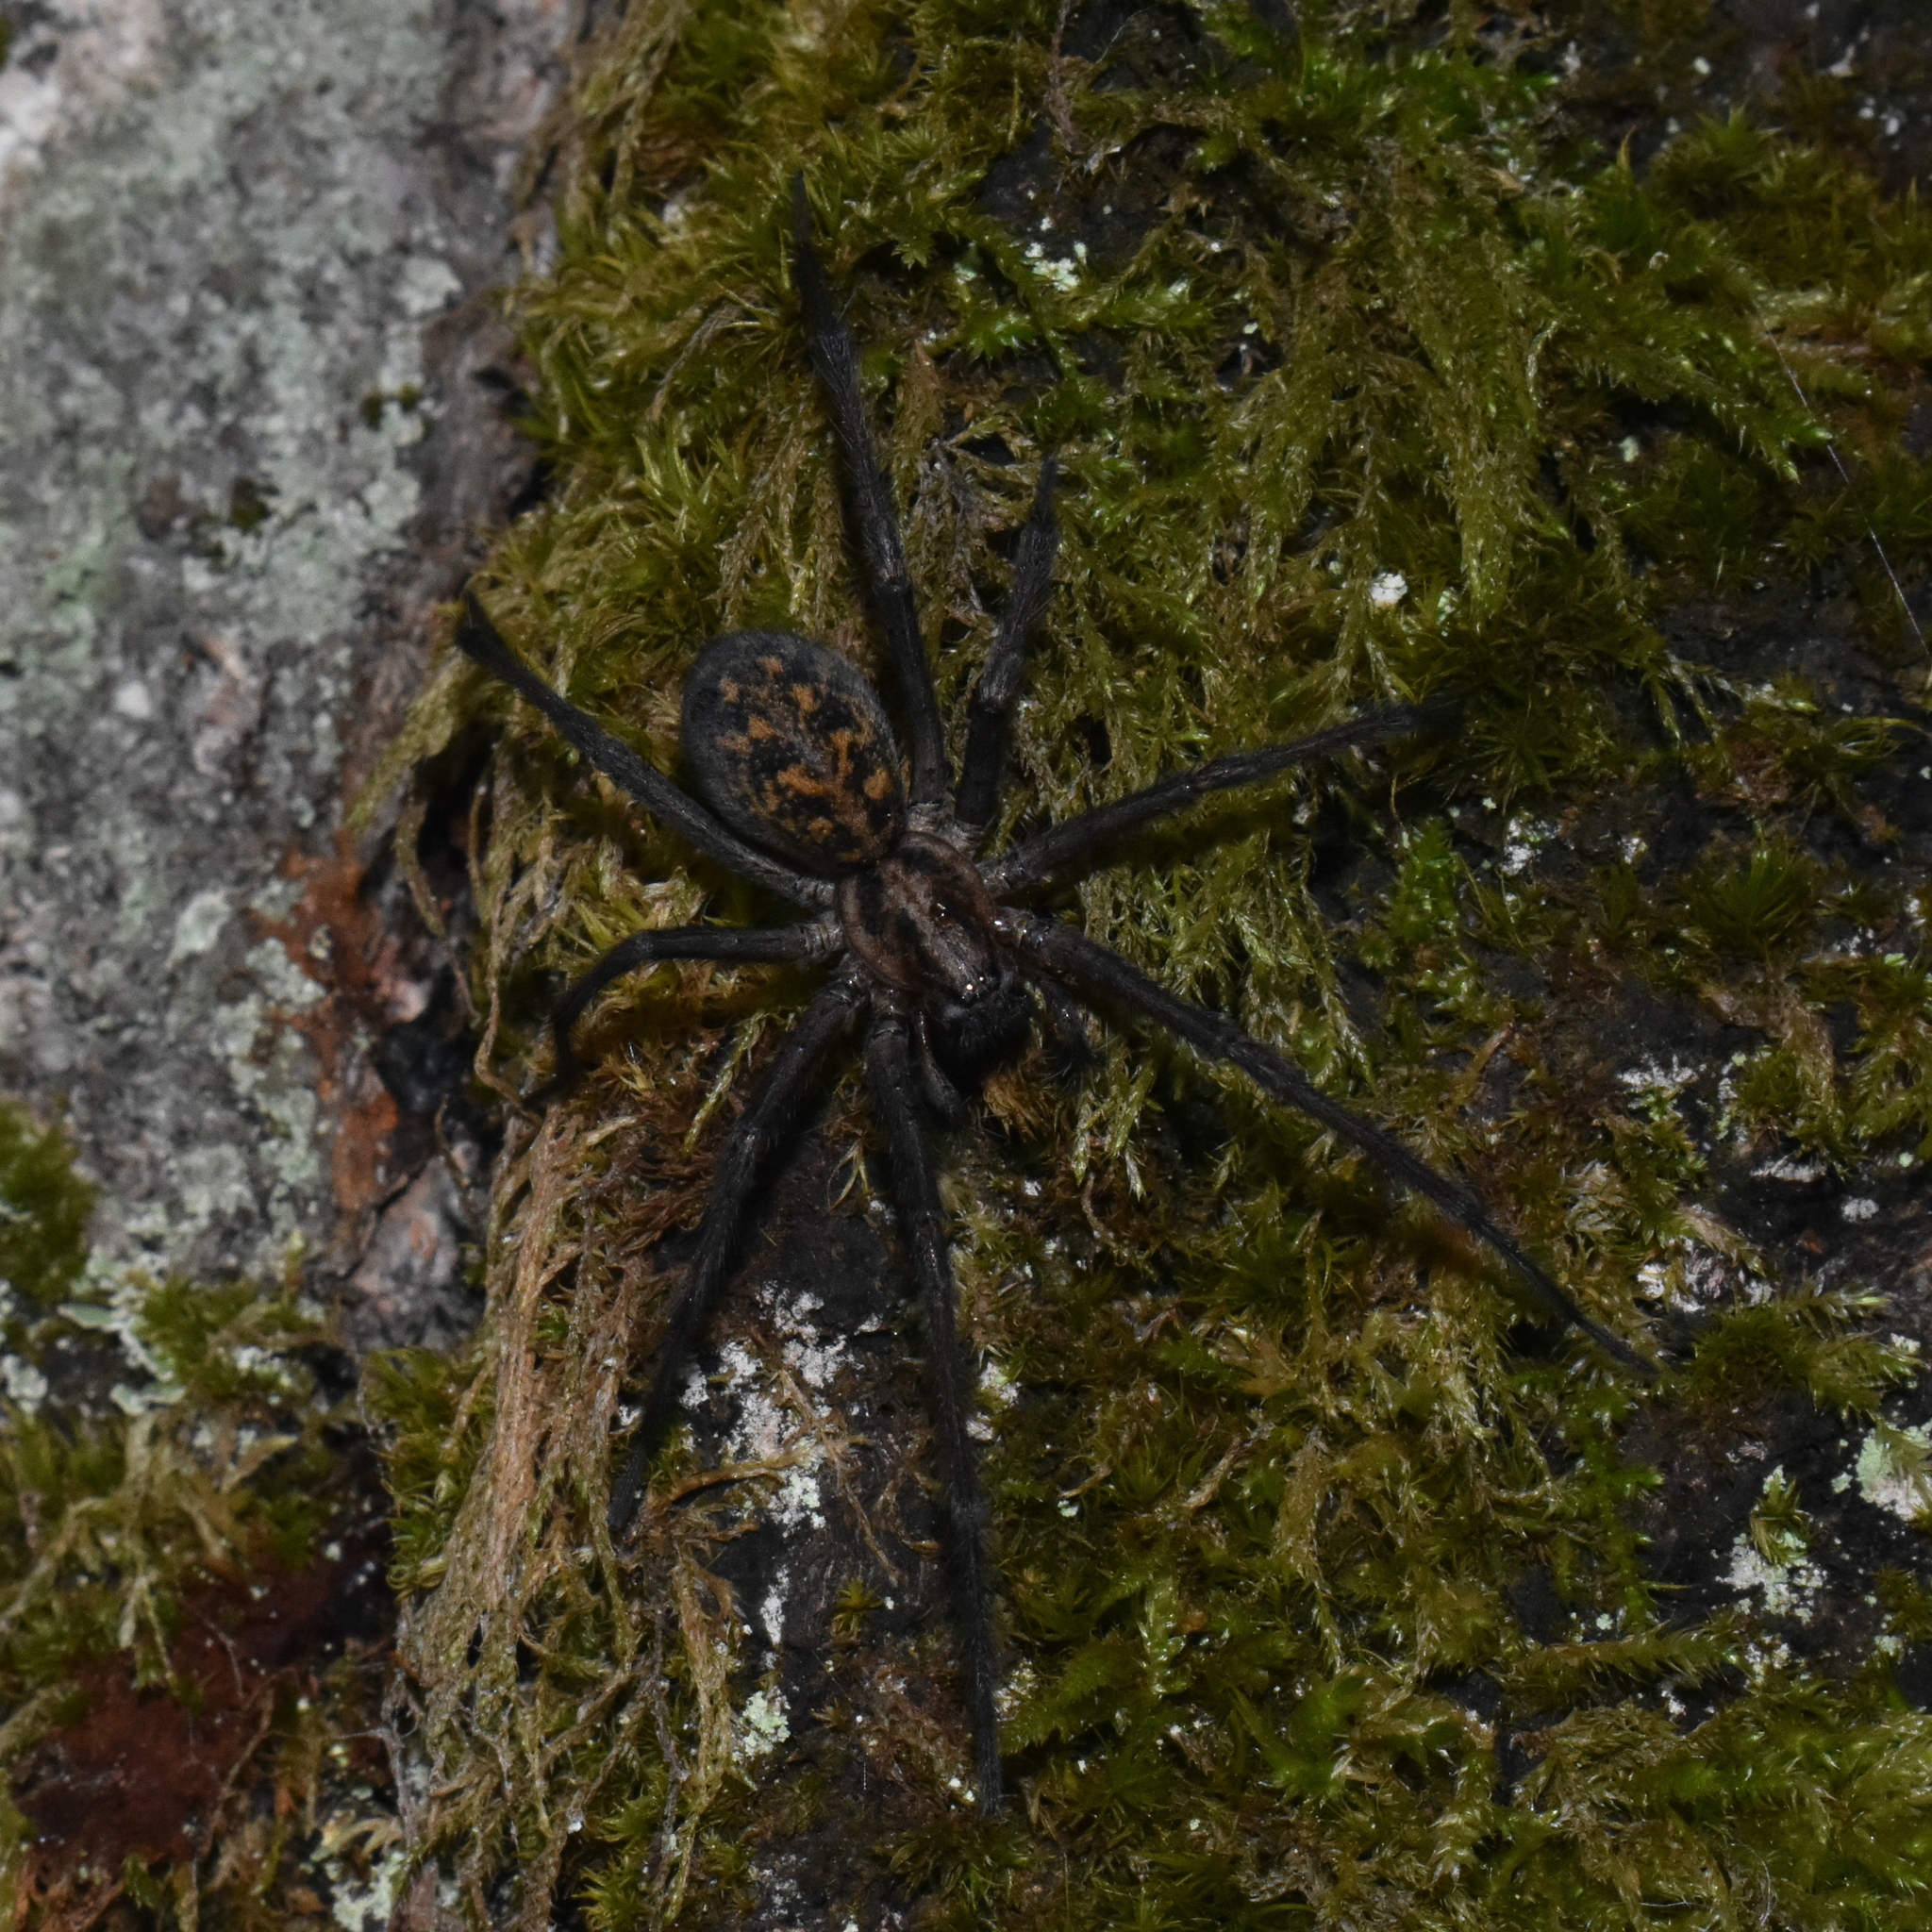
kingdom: Animalia
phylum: Arthropoda
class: Arachnida
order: Araneae
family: Agelenidae
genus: Eratigena
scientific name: Eratigena duellica
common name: Giant house spider
